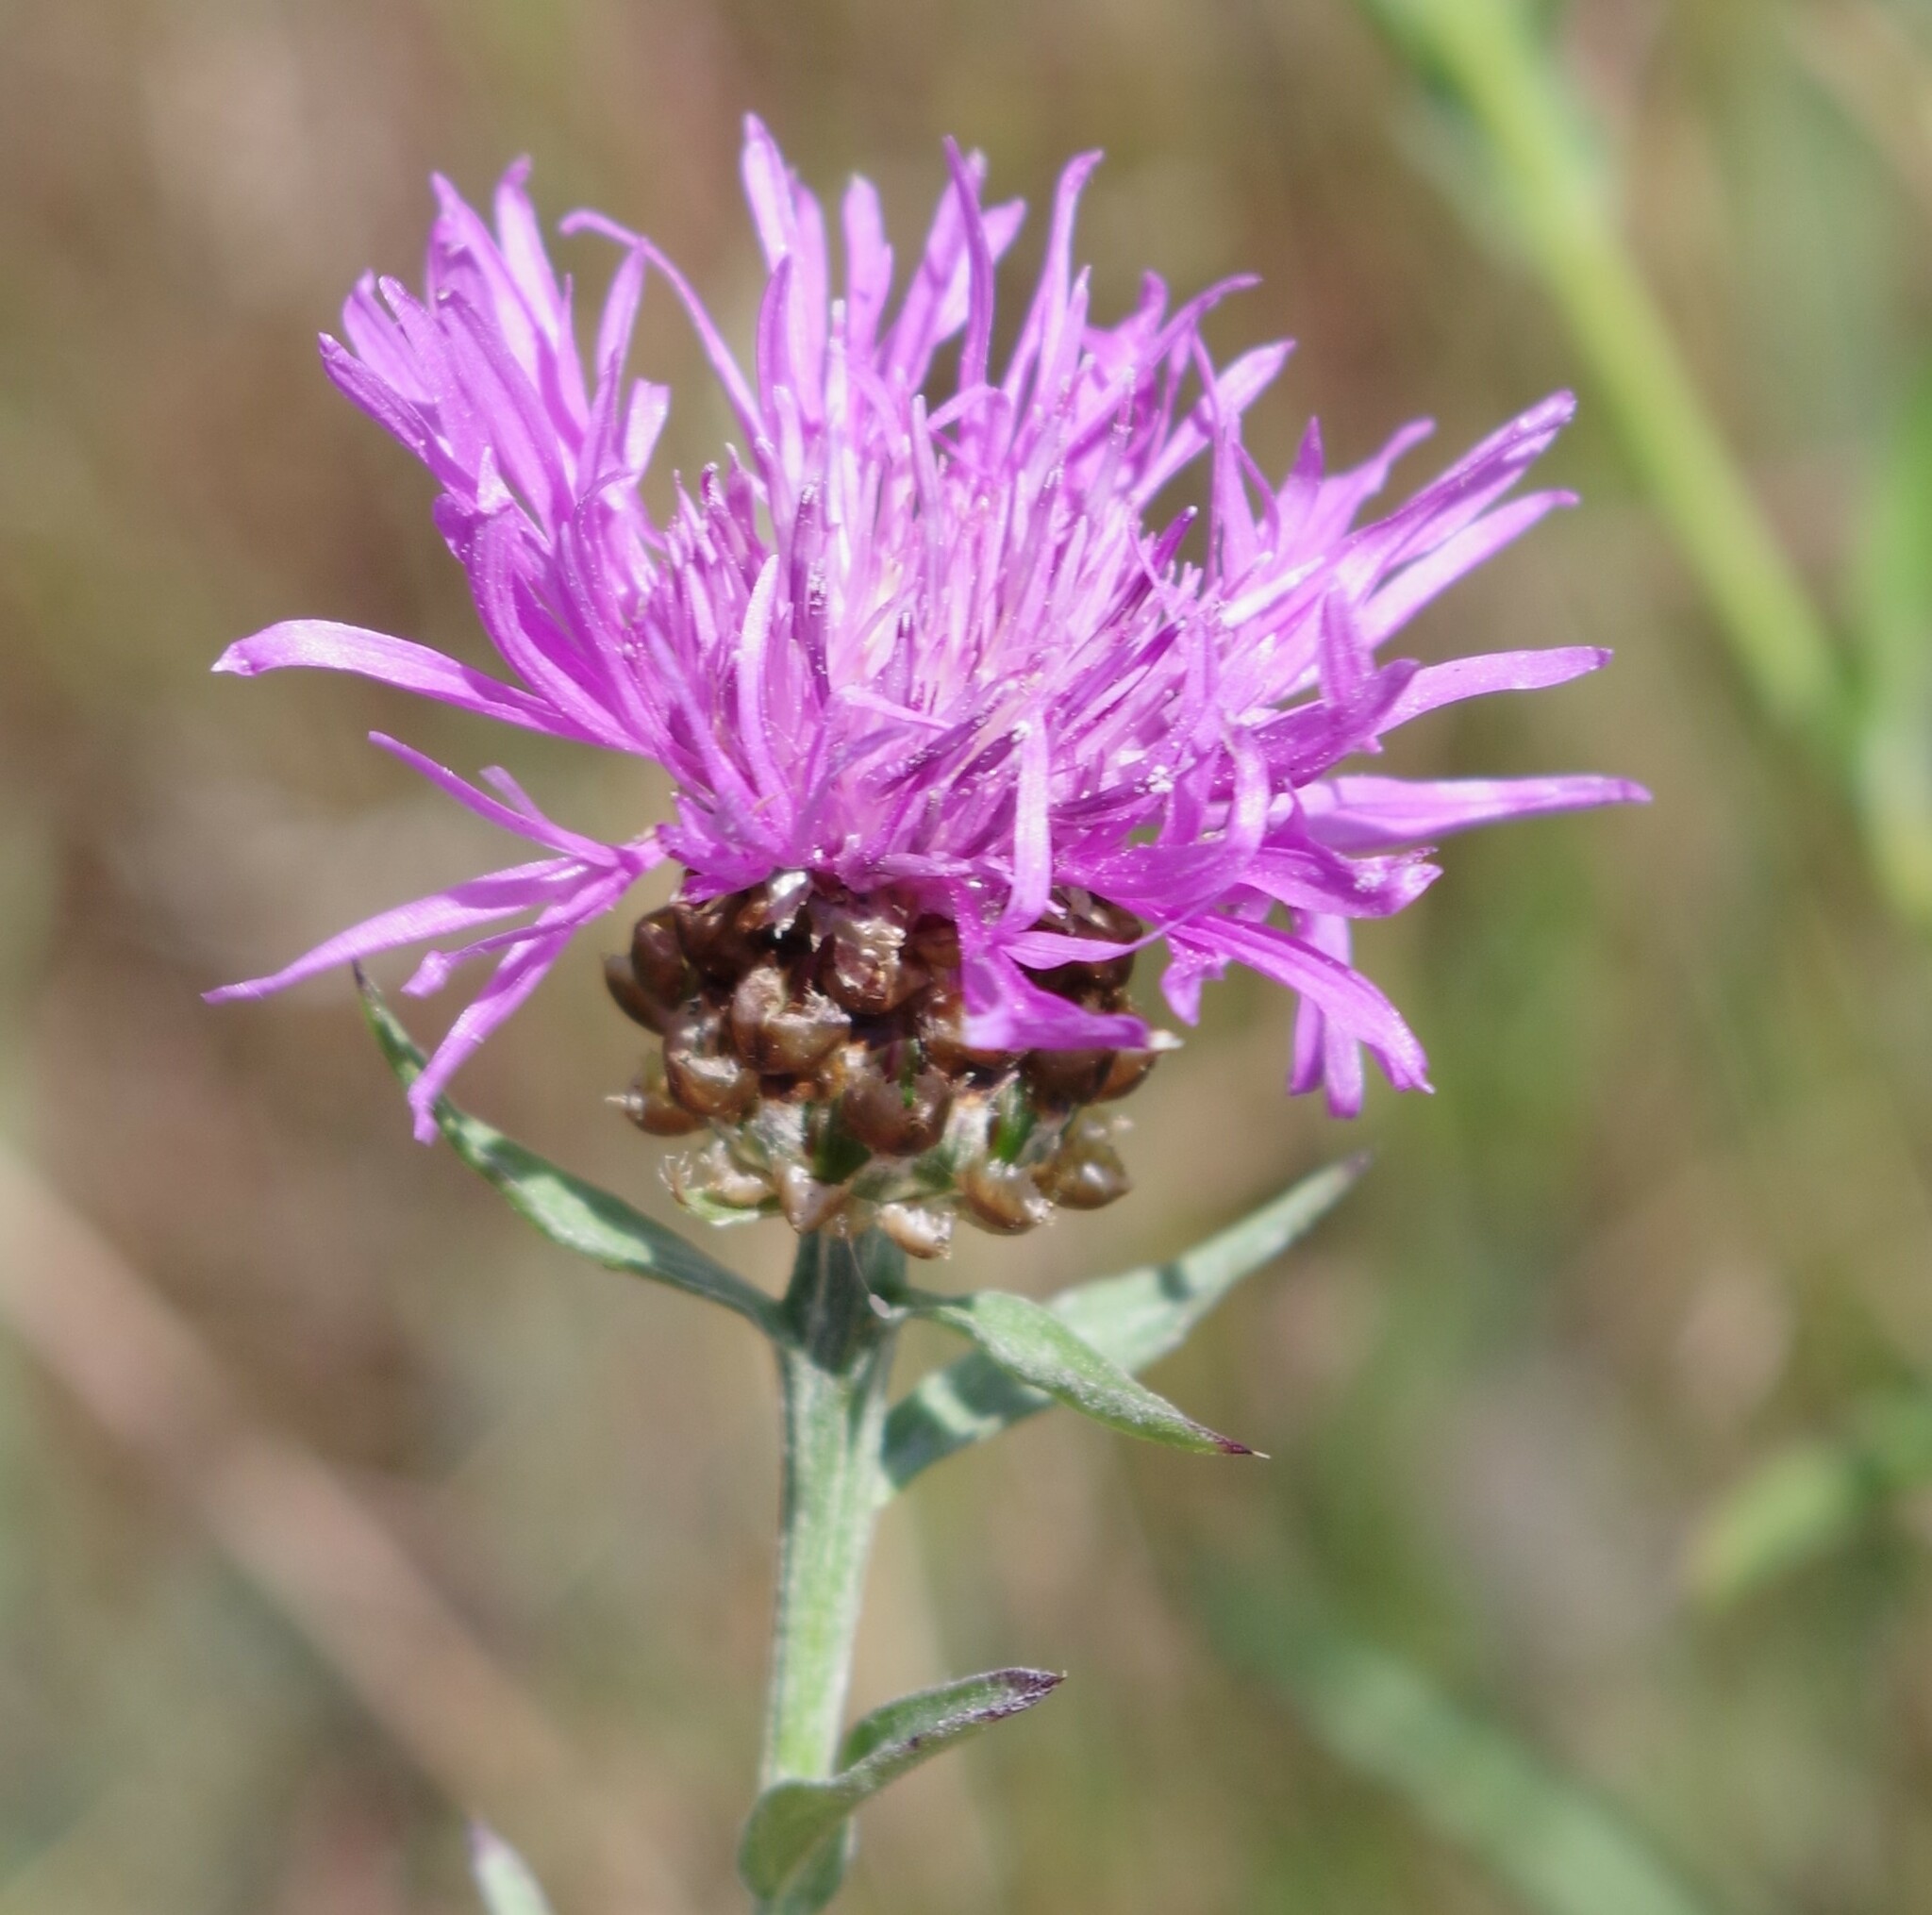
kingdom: Plantae
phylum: Tracheophyta
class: Magnoliopsida
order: Asterales
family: Asteraceae
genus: Centaurea
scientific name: Centaurea jacea
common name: Brown knapweed
